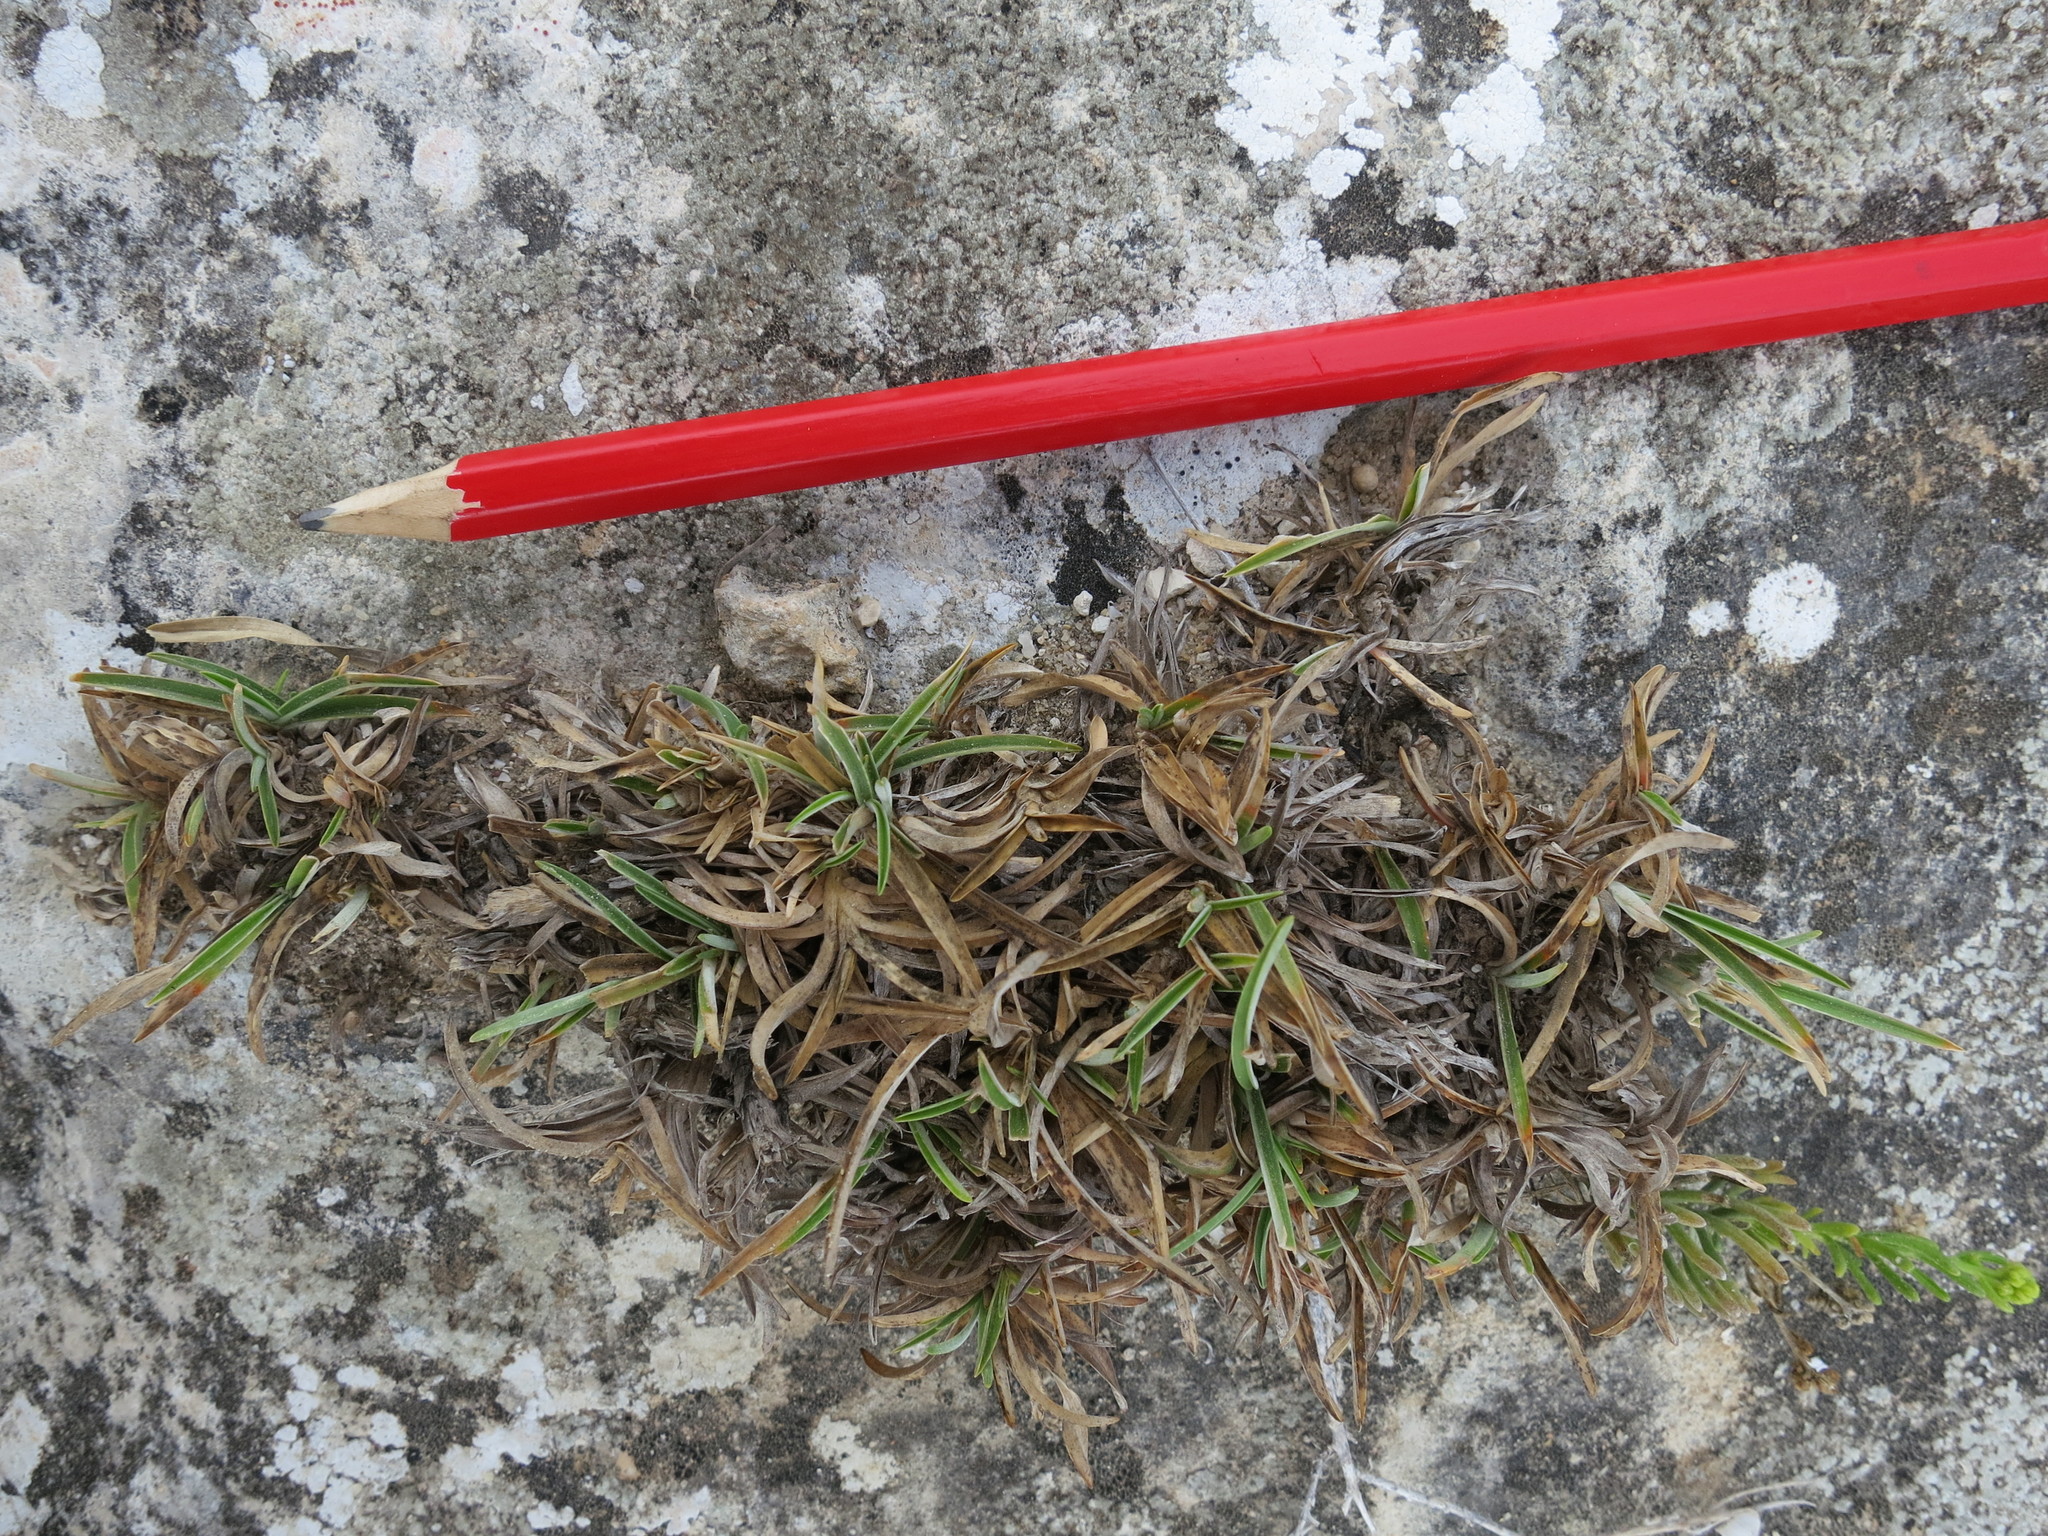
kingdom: Plantae
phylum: Tracheophyta
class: Liliopsida
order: Poales
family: Poaceae
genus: Chrysopogon
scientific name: Chrysopogon humbertianus
